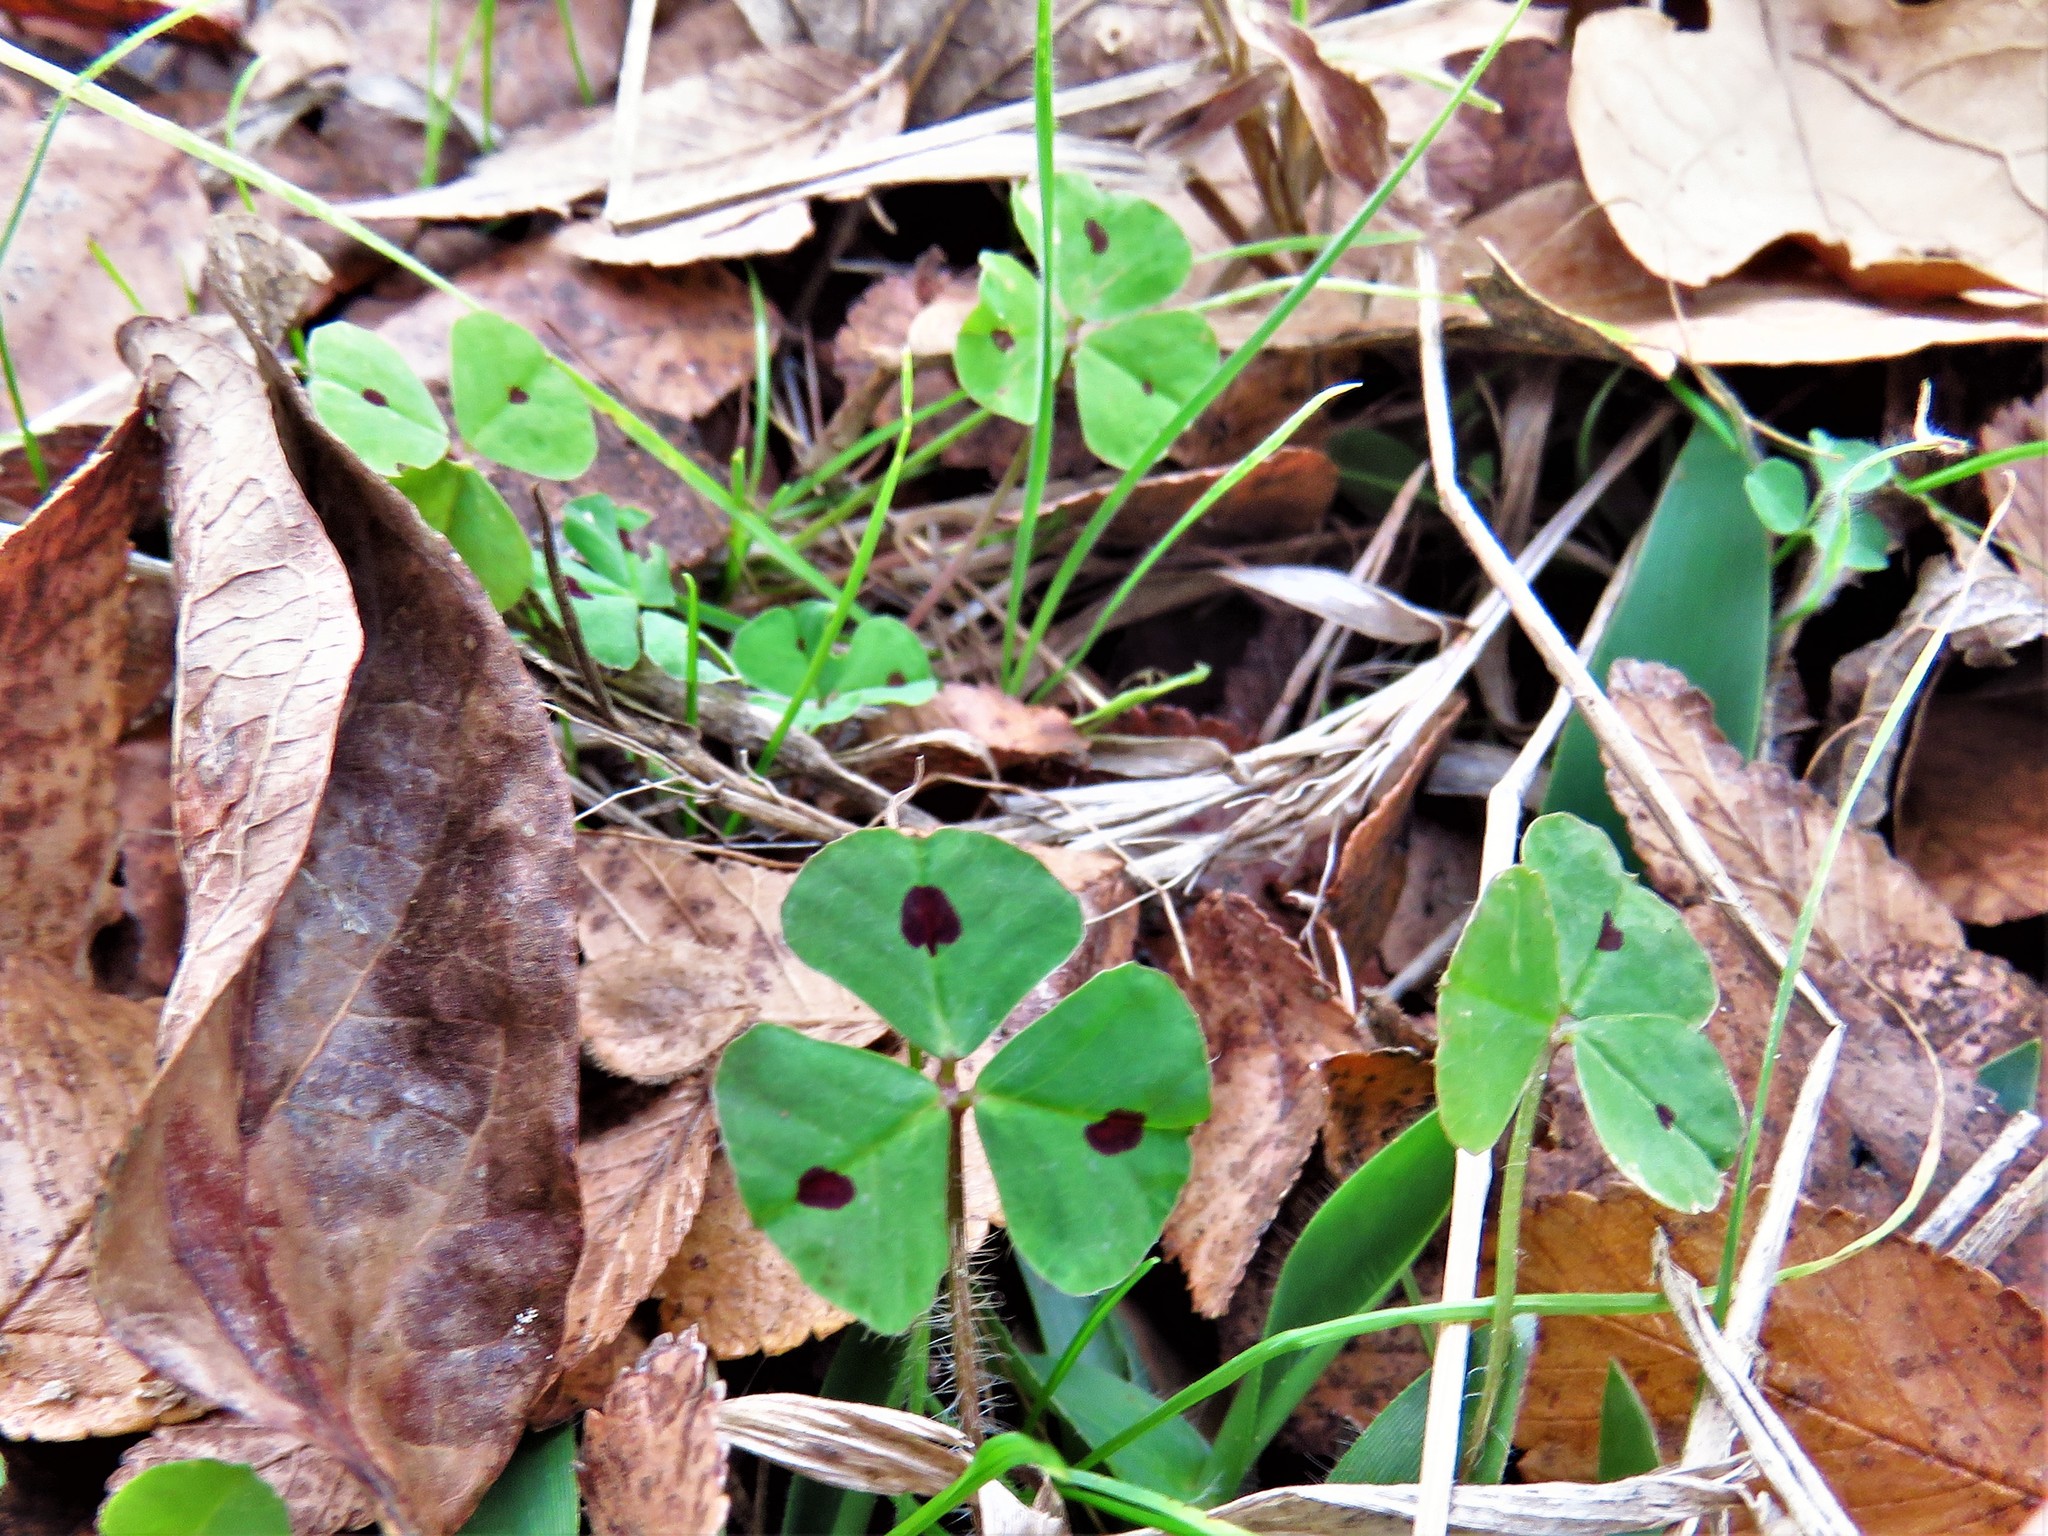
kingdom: Plantae
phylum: Tracheophyta
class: Magnoliopsida
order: Fabales
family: Fabaceae
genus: Medicago
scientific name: Medicago arabica
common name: Spotted medick
